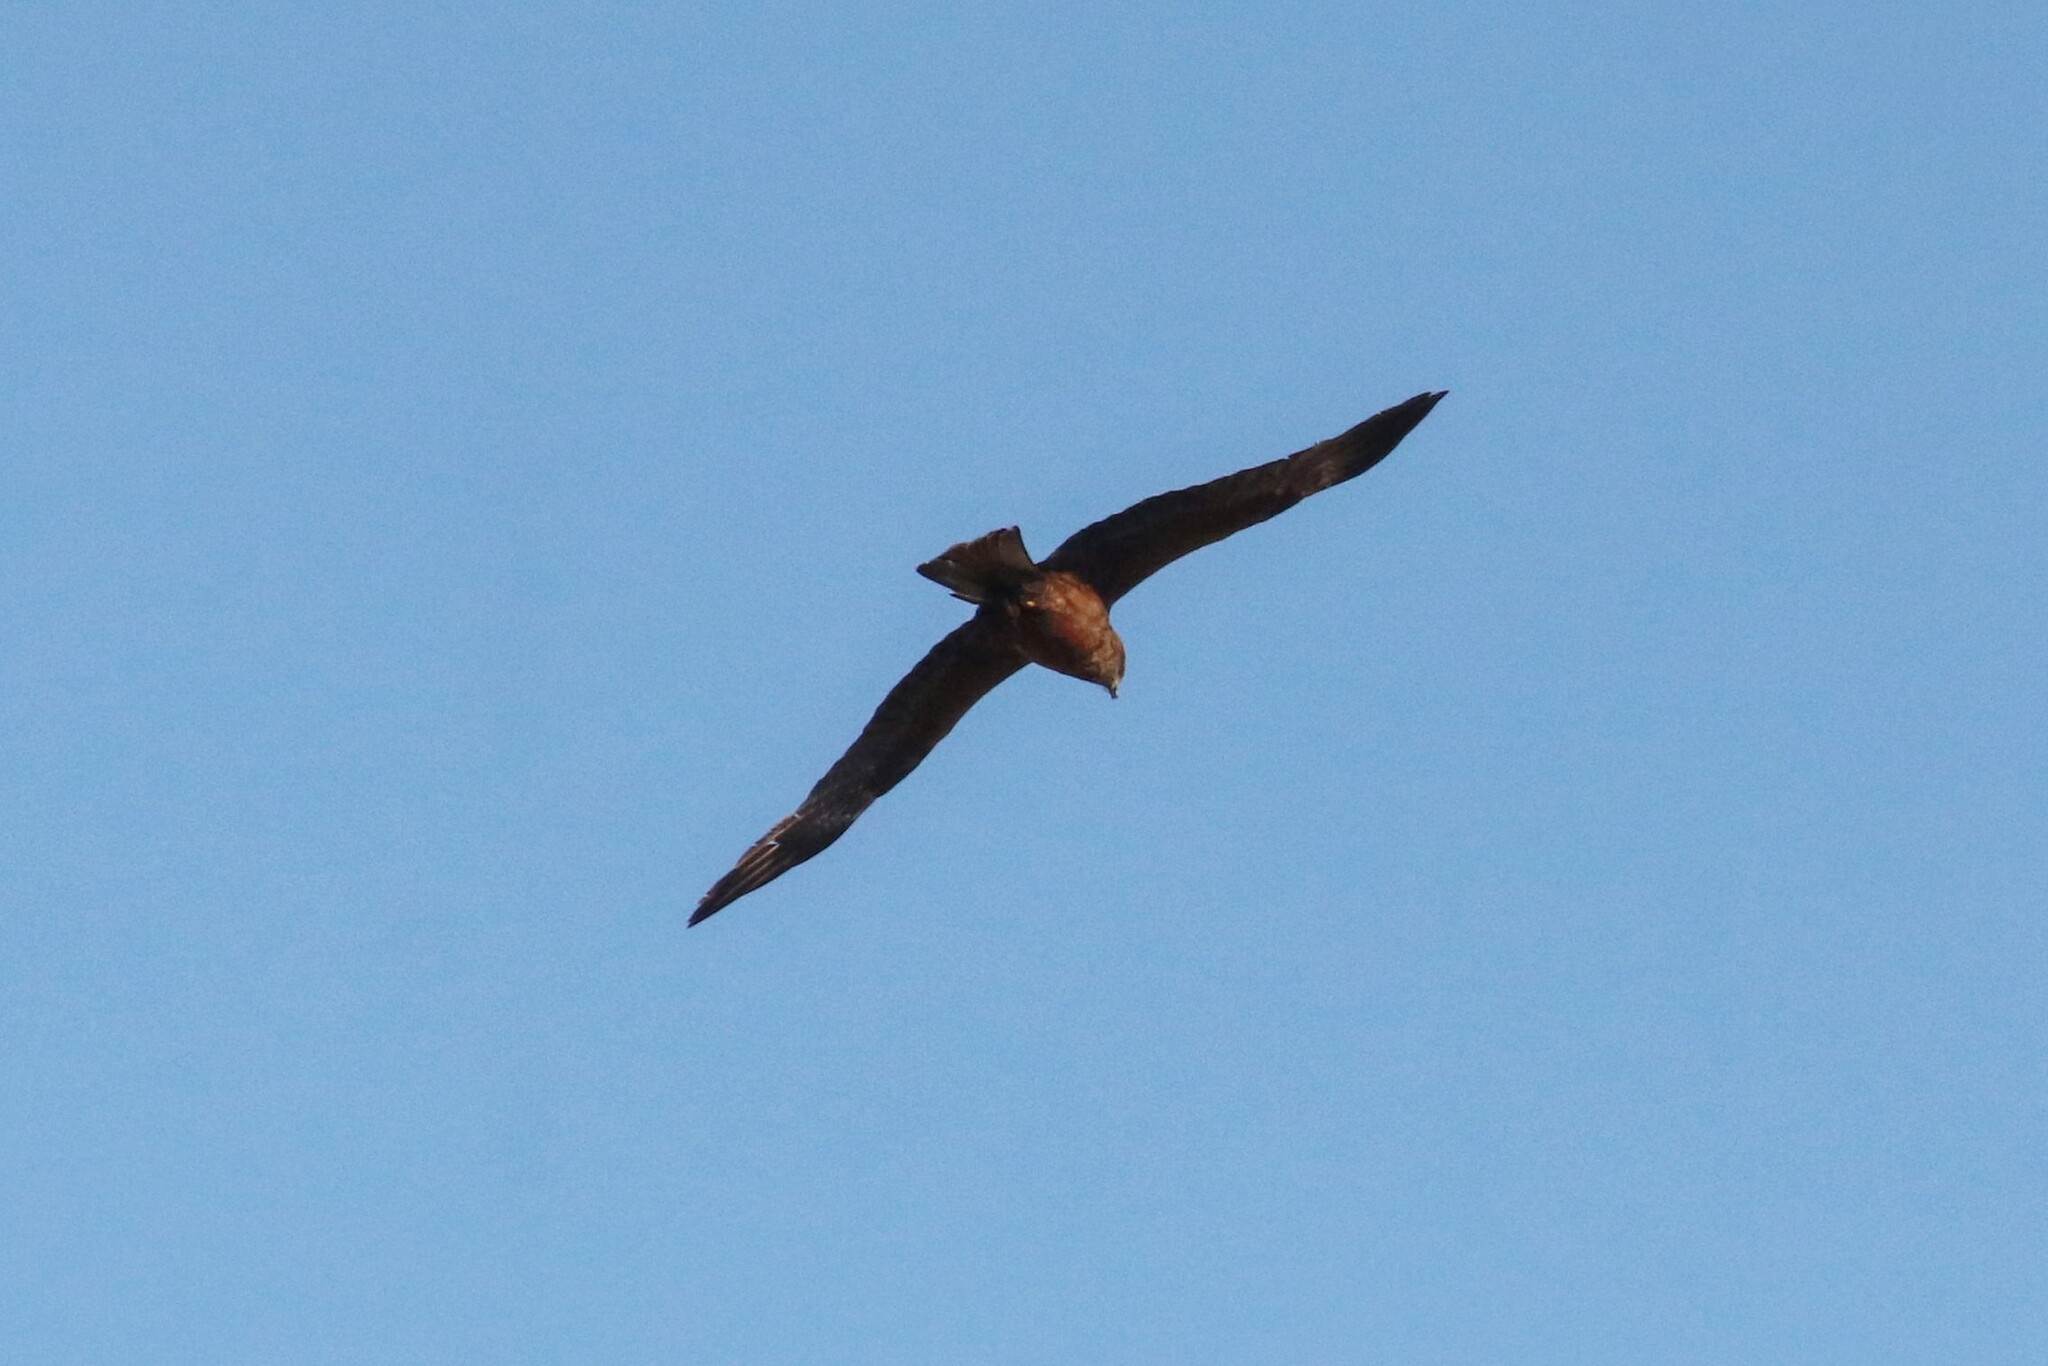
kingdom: Animalia
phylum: Chordata
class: Aves
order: Accipitriformes
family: Accipitridae
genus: Milvus
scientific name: Milvus migrans
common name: Black kite
